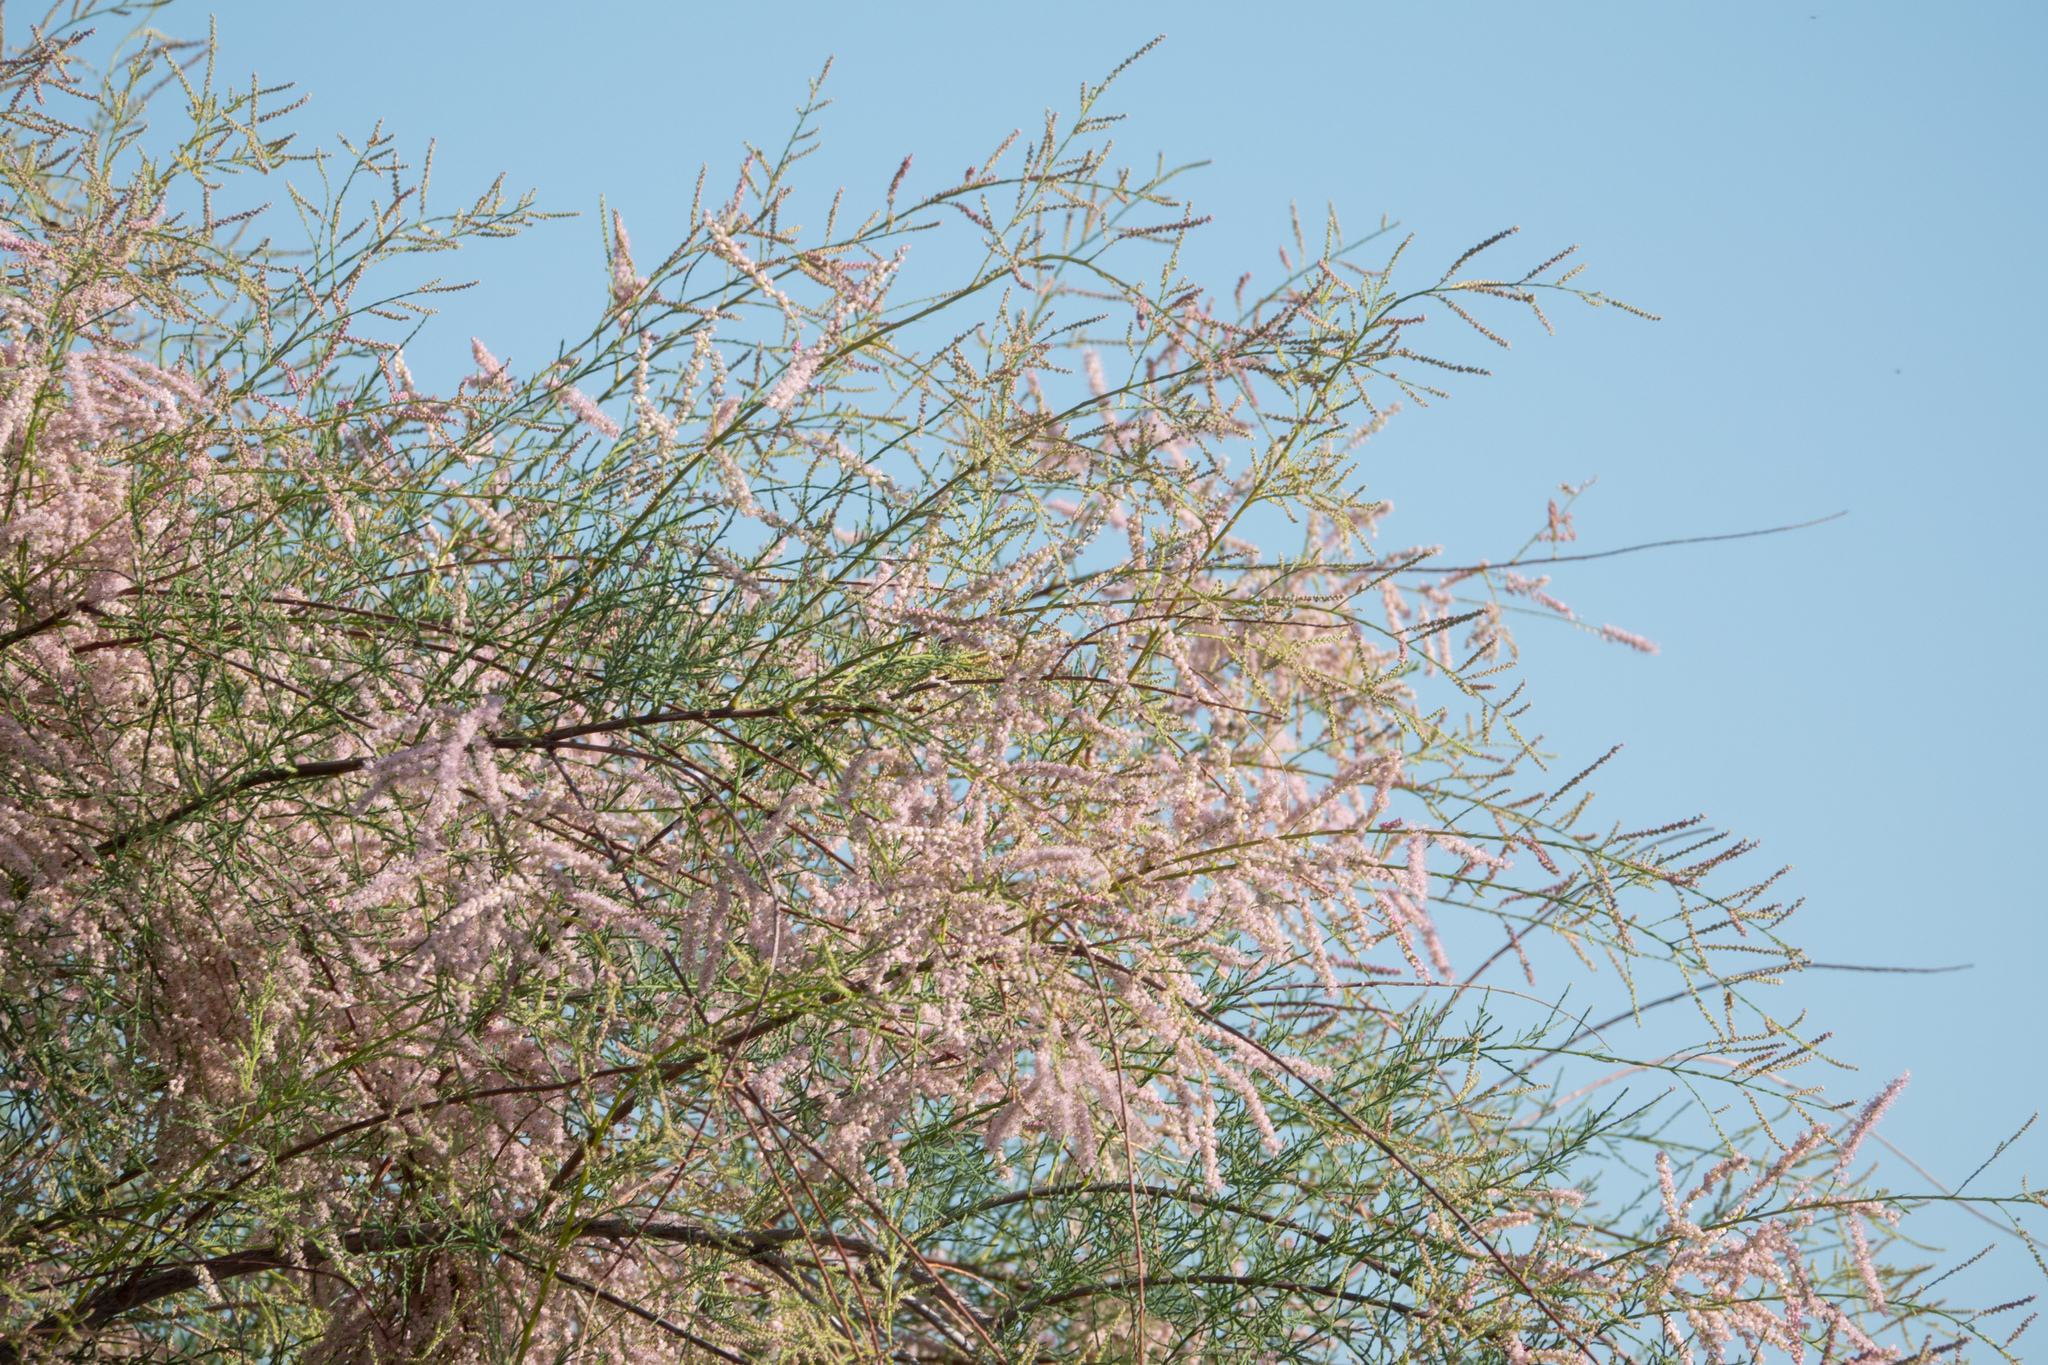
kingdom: Plantae
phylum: Tracheophyta
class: Magnoliopsida
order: Caryophyllales
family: Tamaricaceae
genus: Tamarix
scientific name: Tamarix
